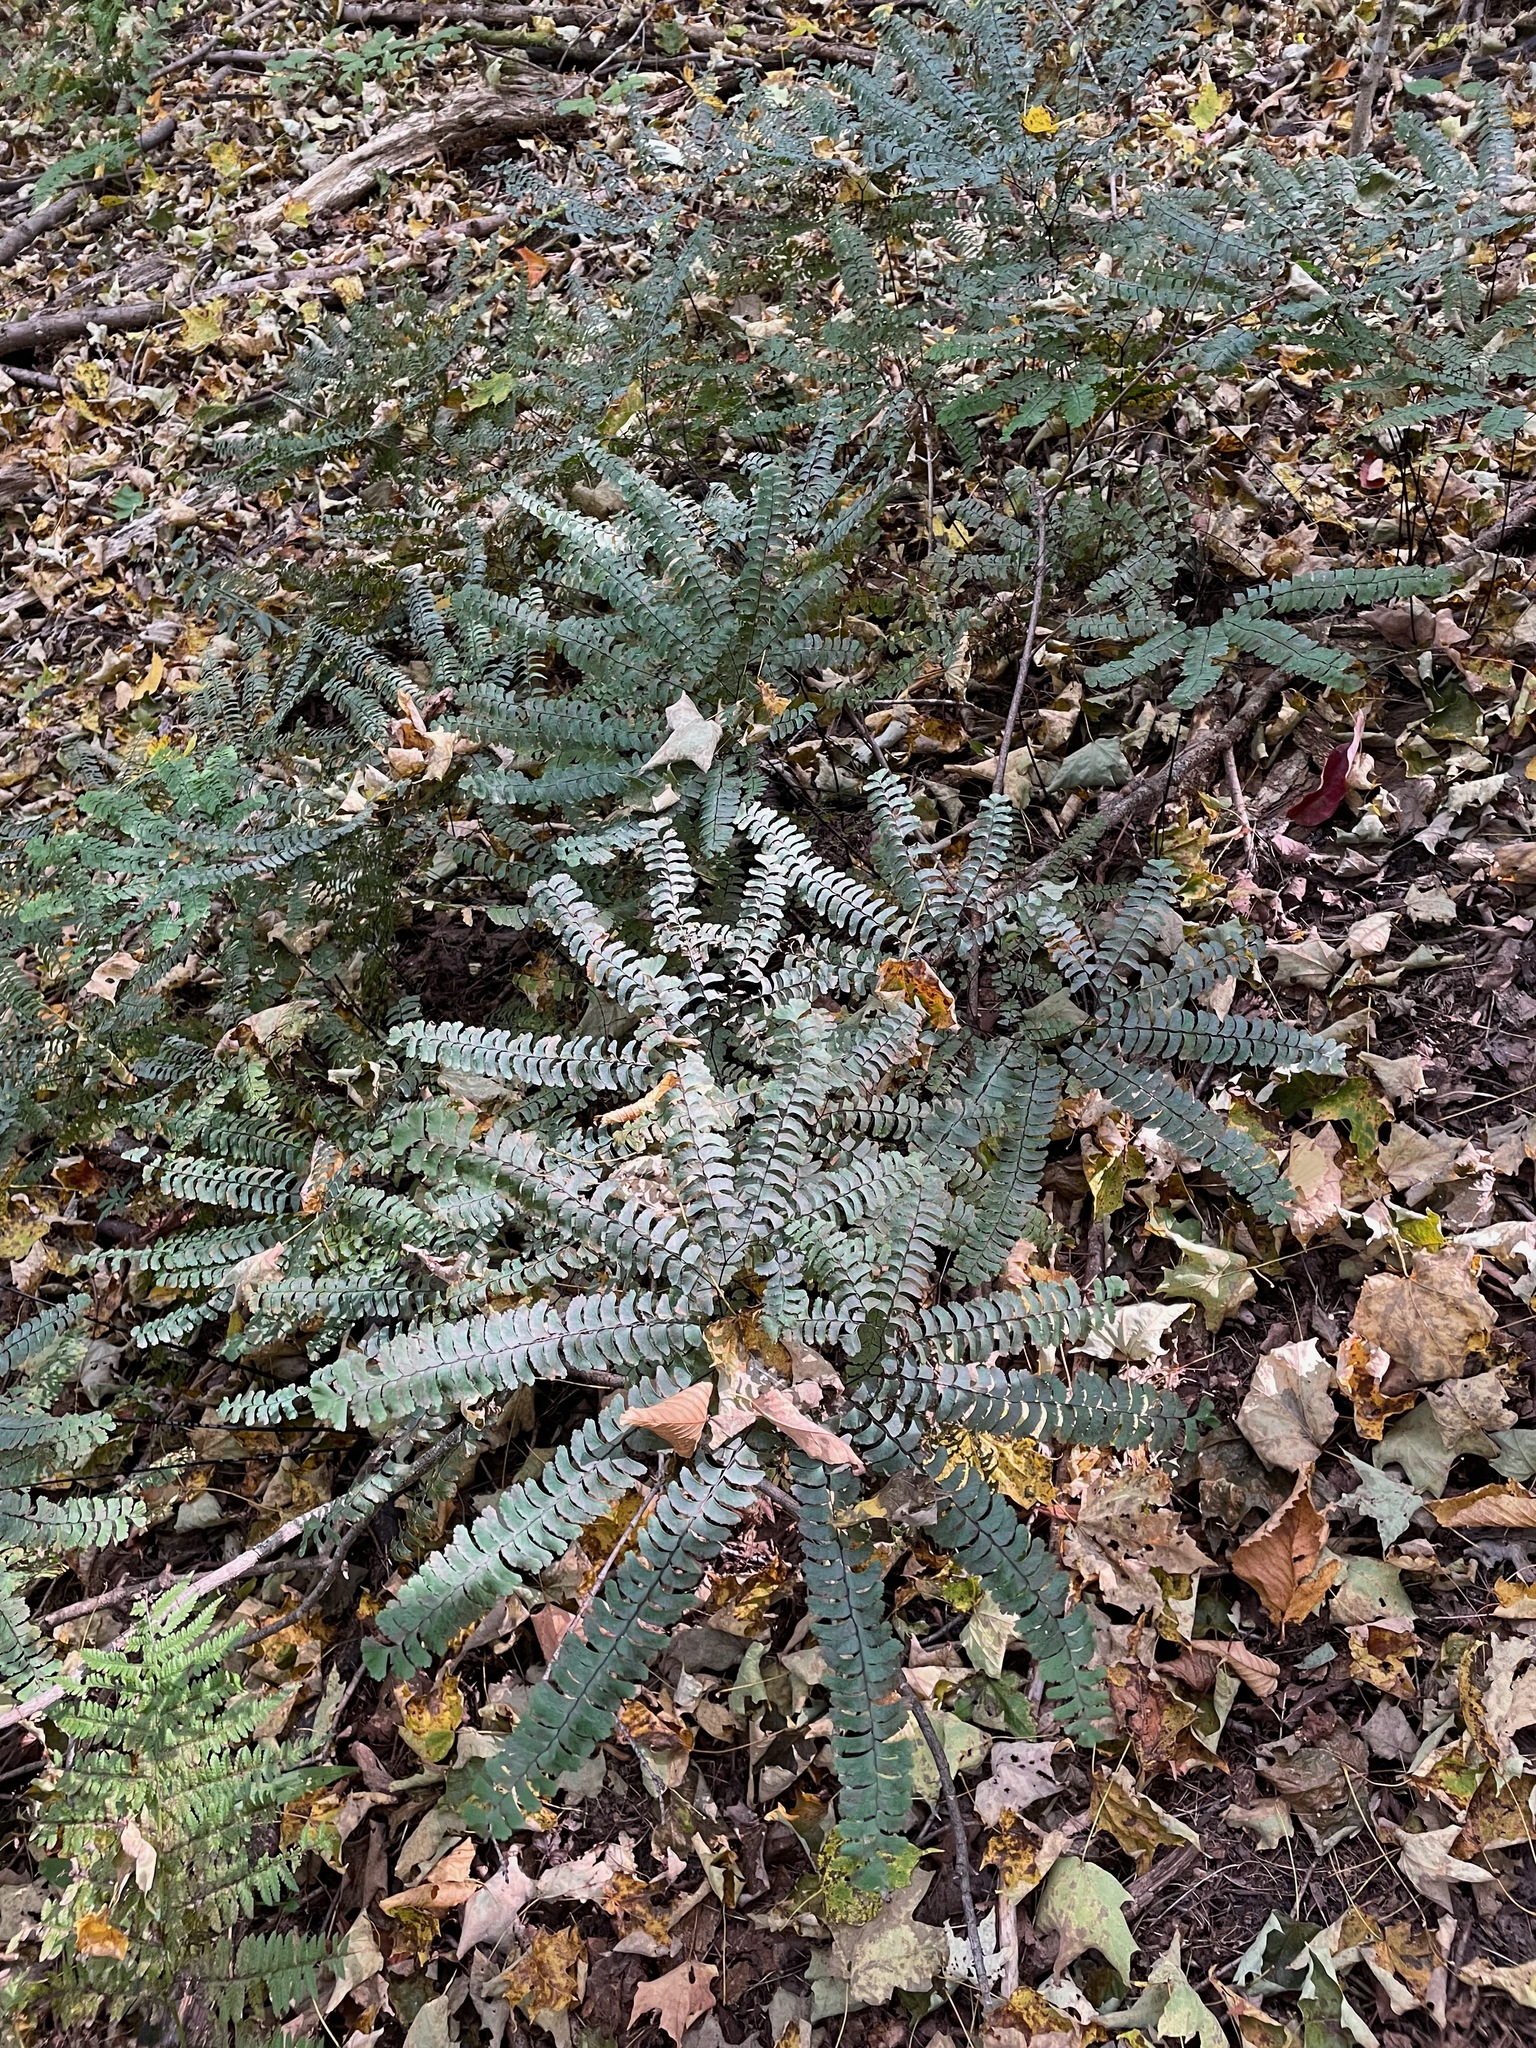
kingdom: Plantae
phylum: Tracheophyta
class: Polypodiopsida
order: Polypodiales
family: Pteridaceae
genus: Adiantum
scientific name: Adiantum pedatum
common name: Five-finger fern
